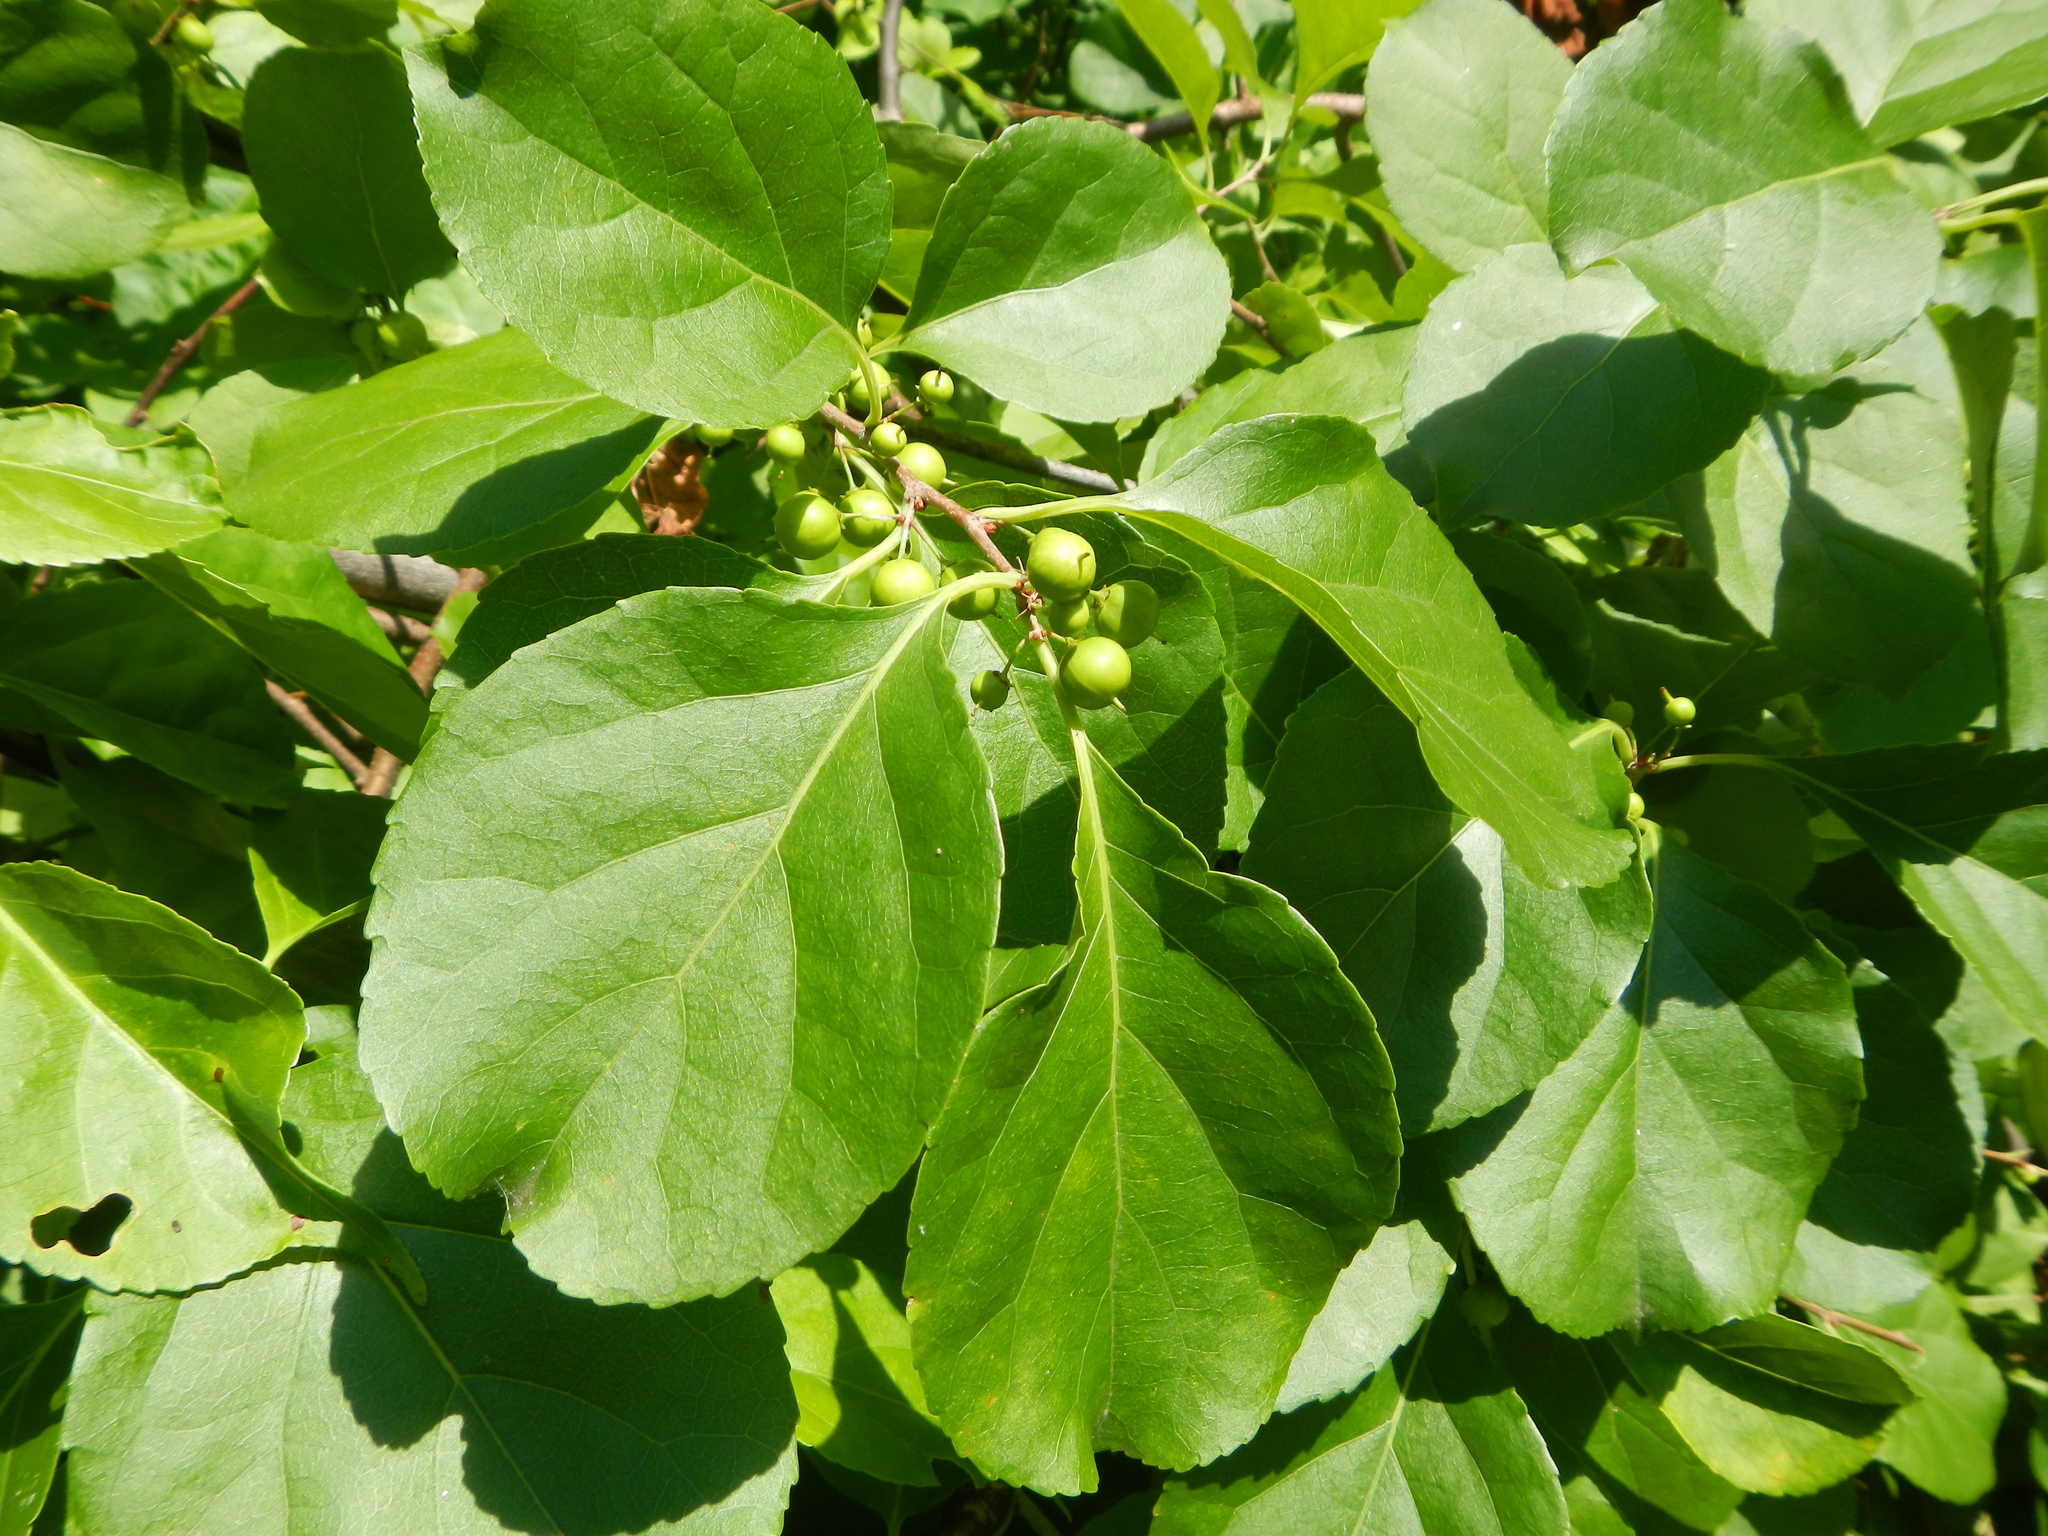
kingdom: Plantae
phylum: Tracheophyta
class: Magnoliopsida
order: Celastrales
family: Celastraceae
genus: Celastrus
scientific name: Celastrus orbiculatus
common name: Oriental bittersweet
